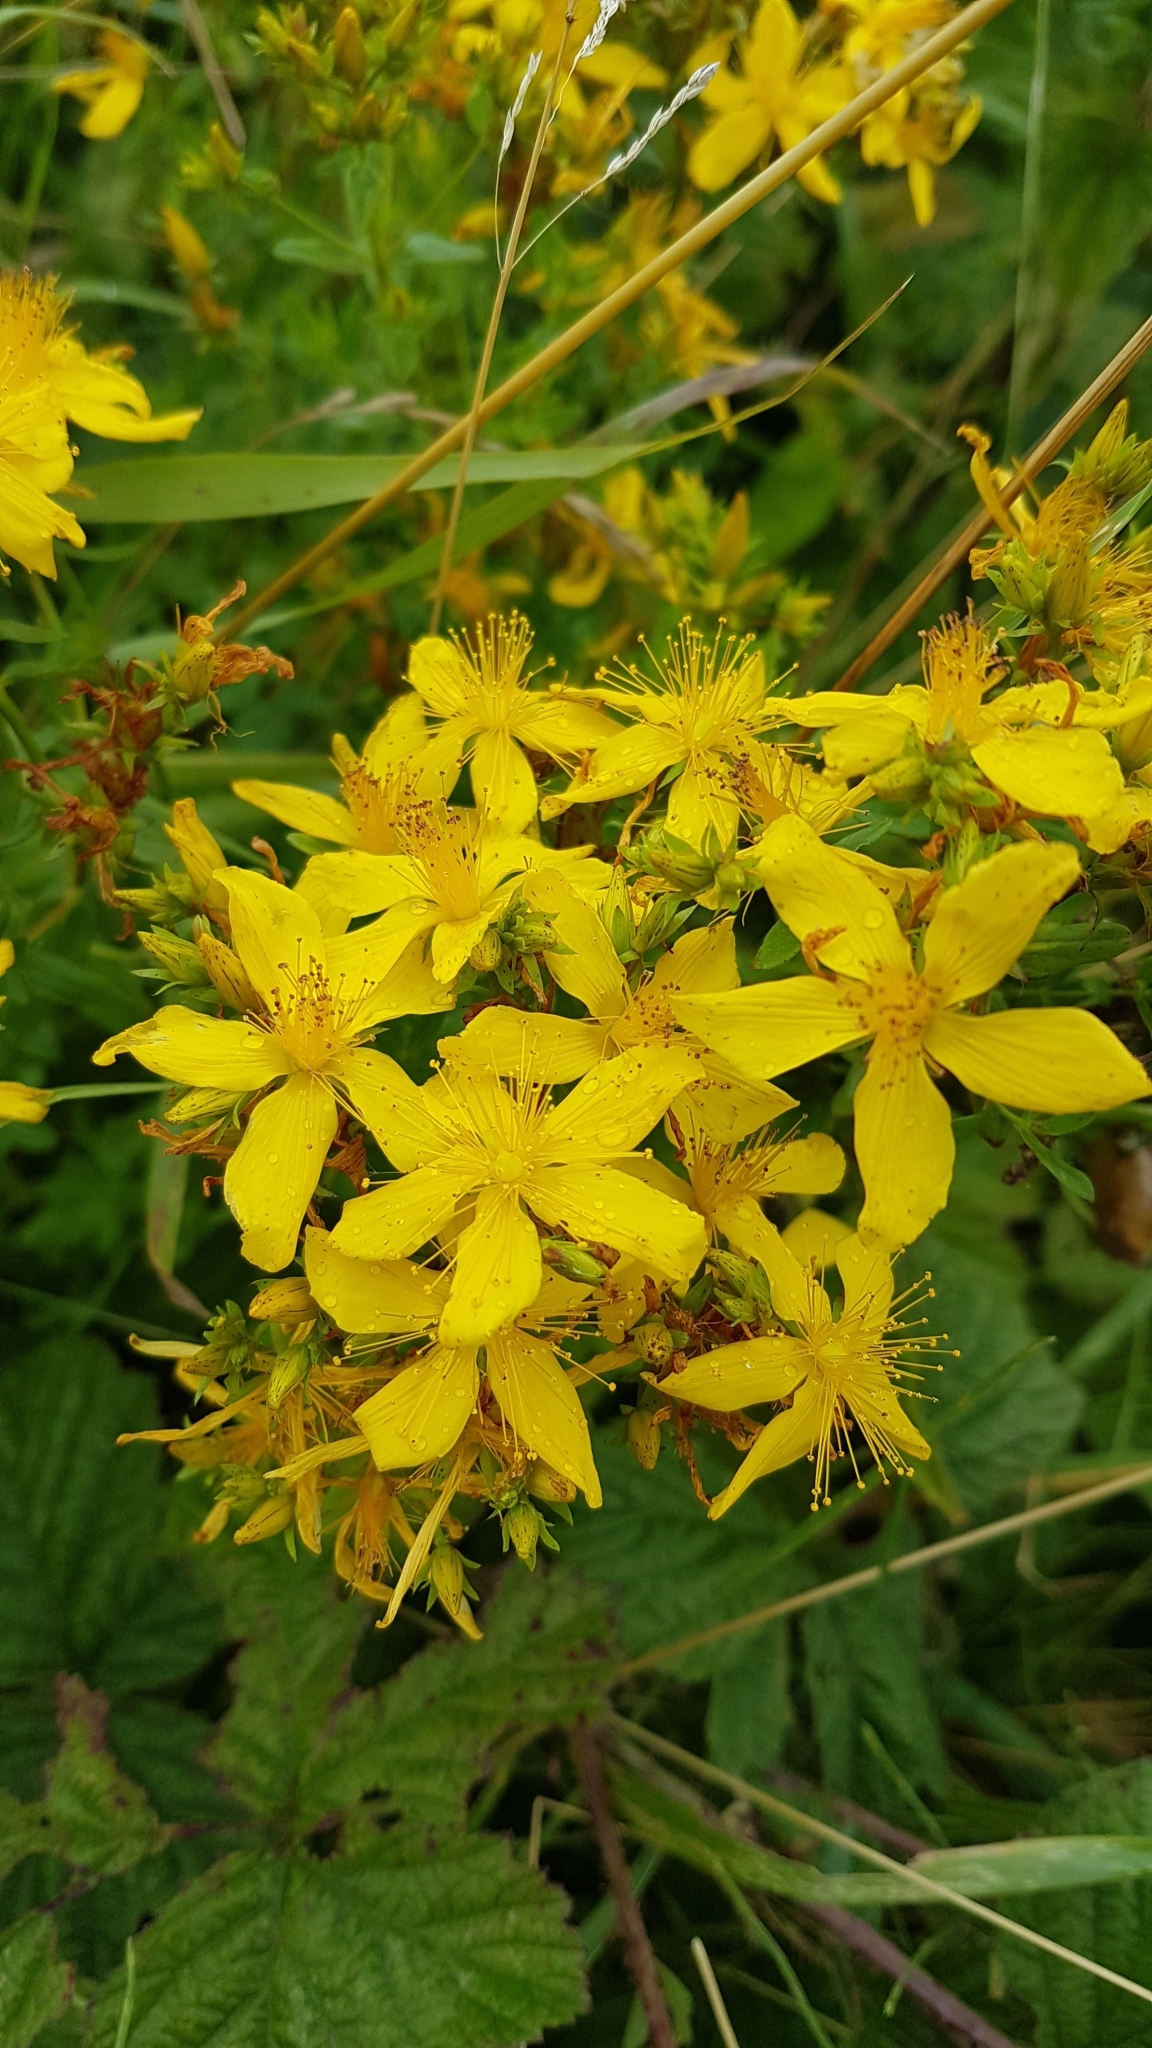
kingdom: Plantae
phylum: Tracheophyta
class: Magnoliopsida
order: Malpighiales
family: Hypericaceae
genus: Hypericum
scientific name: Hypericum perforatum
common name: Common st. johnswort
